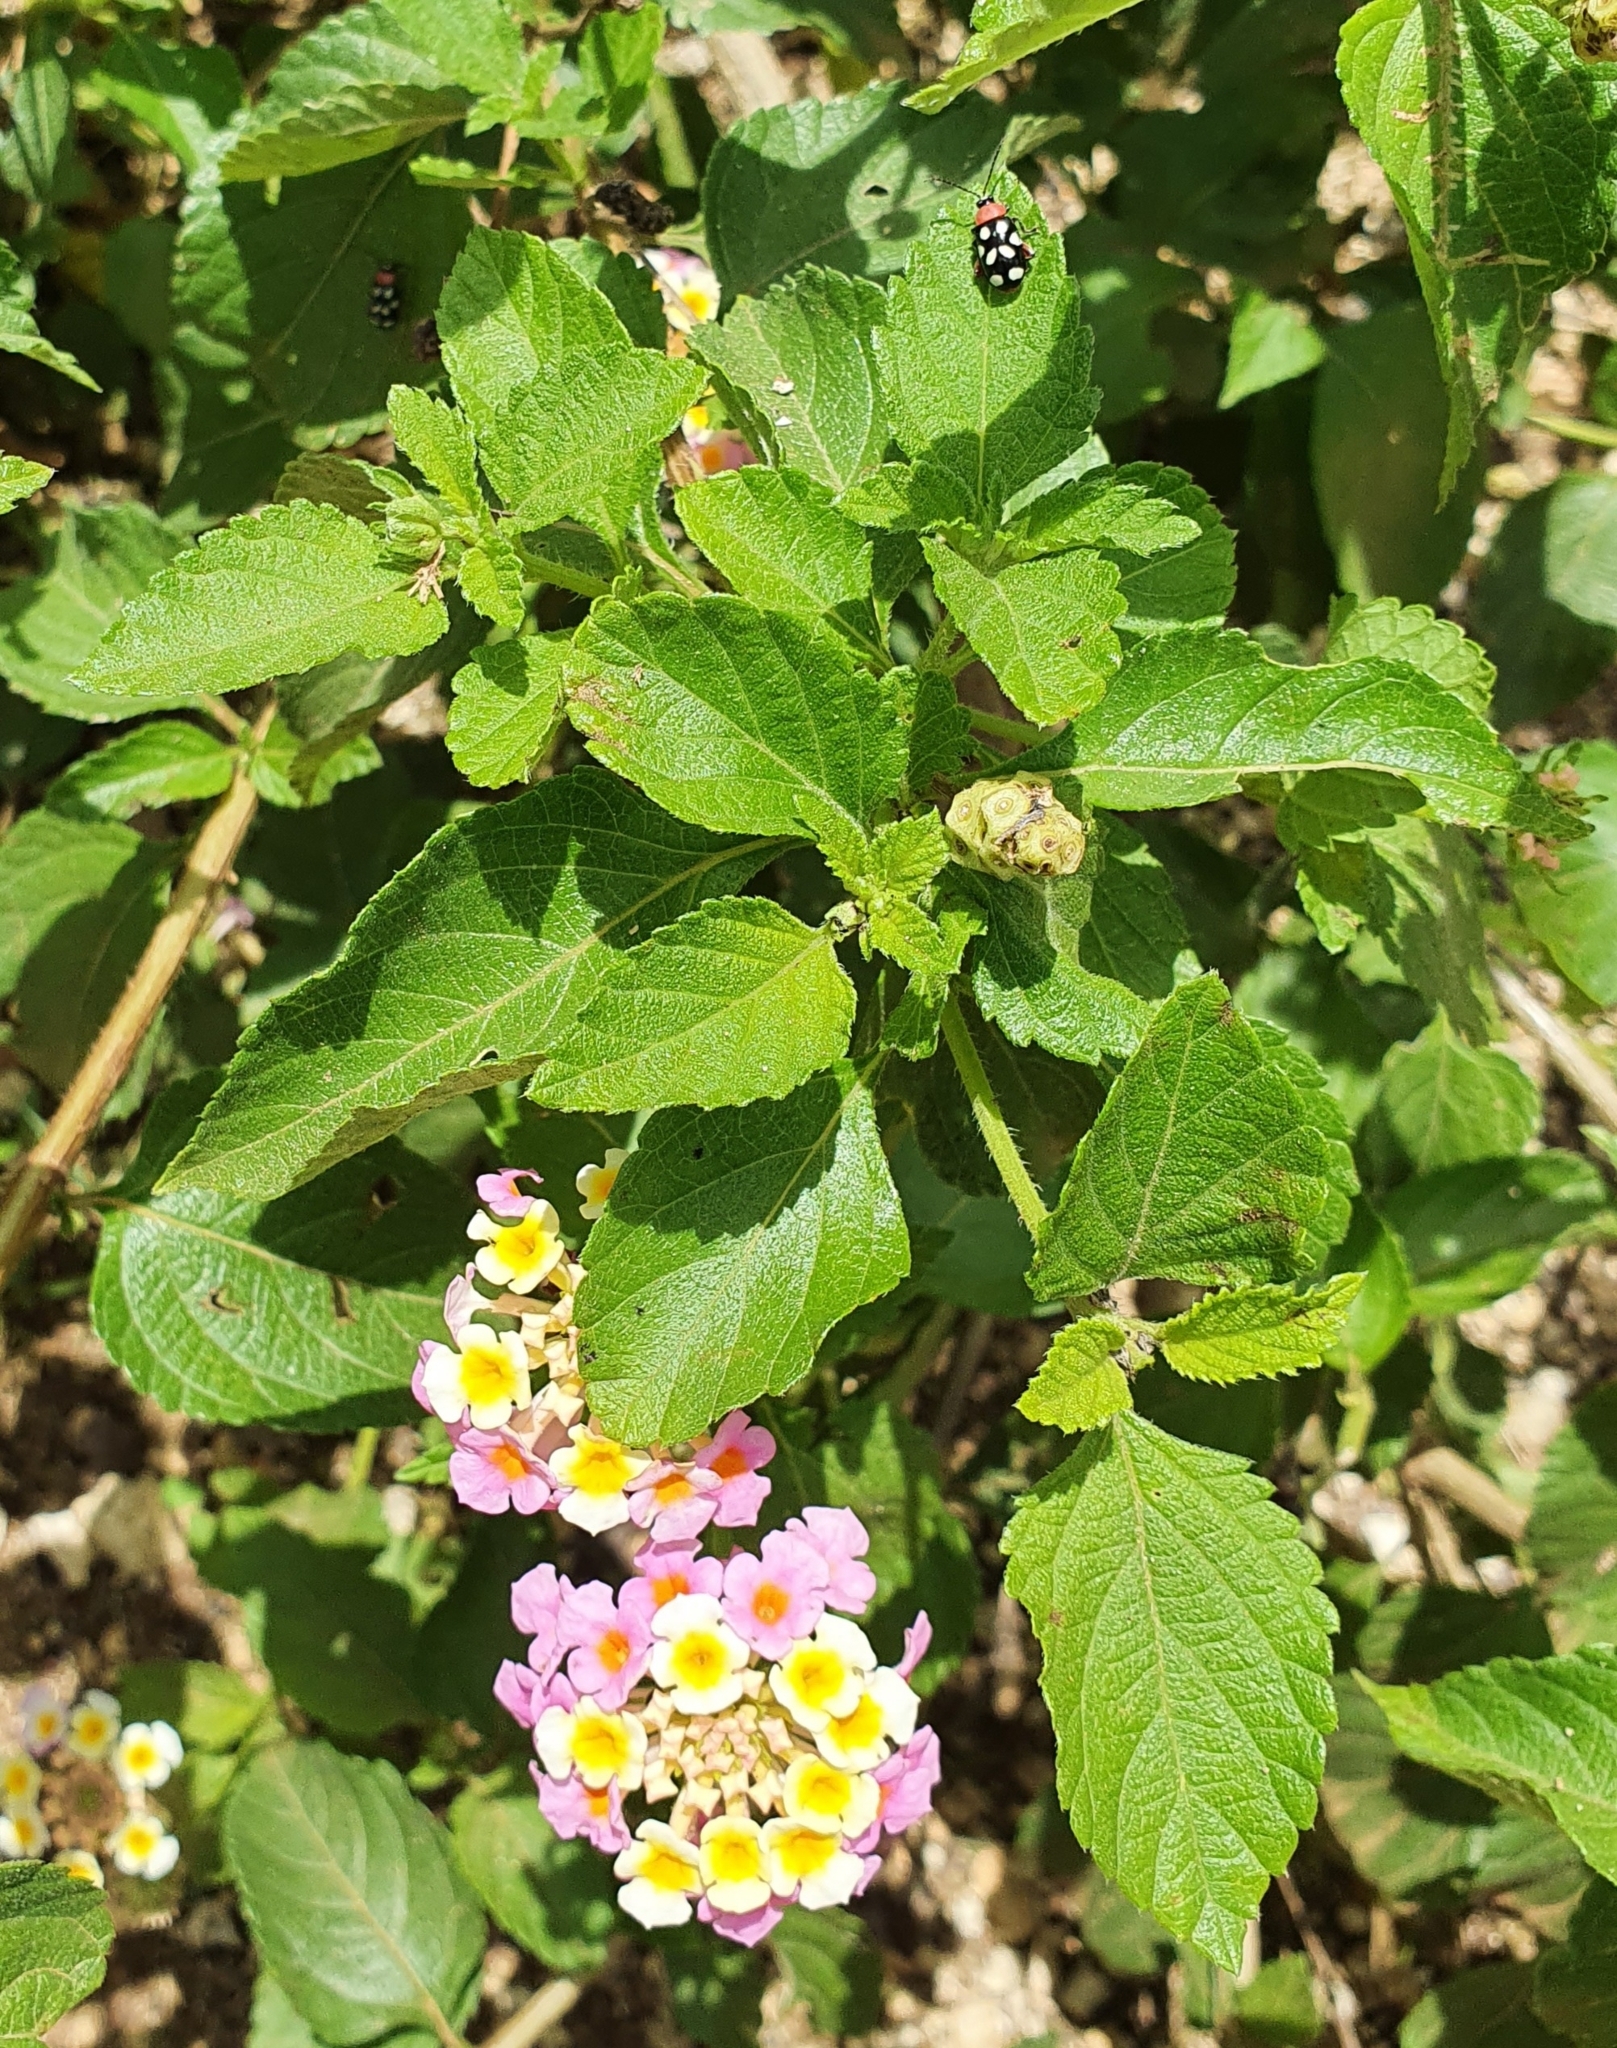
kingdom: Animalia
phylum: Arthropoda
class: Insecta
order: Coleoptera
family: Chrysomelidae
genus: Omophoita
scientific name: Omophoita cyanipennis
